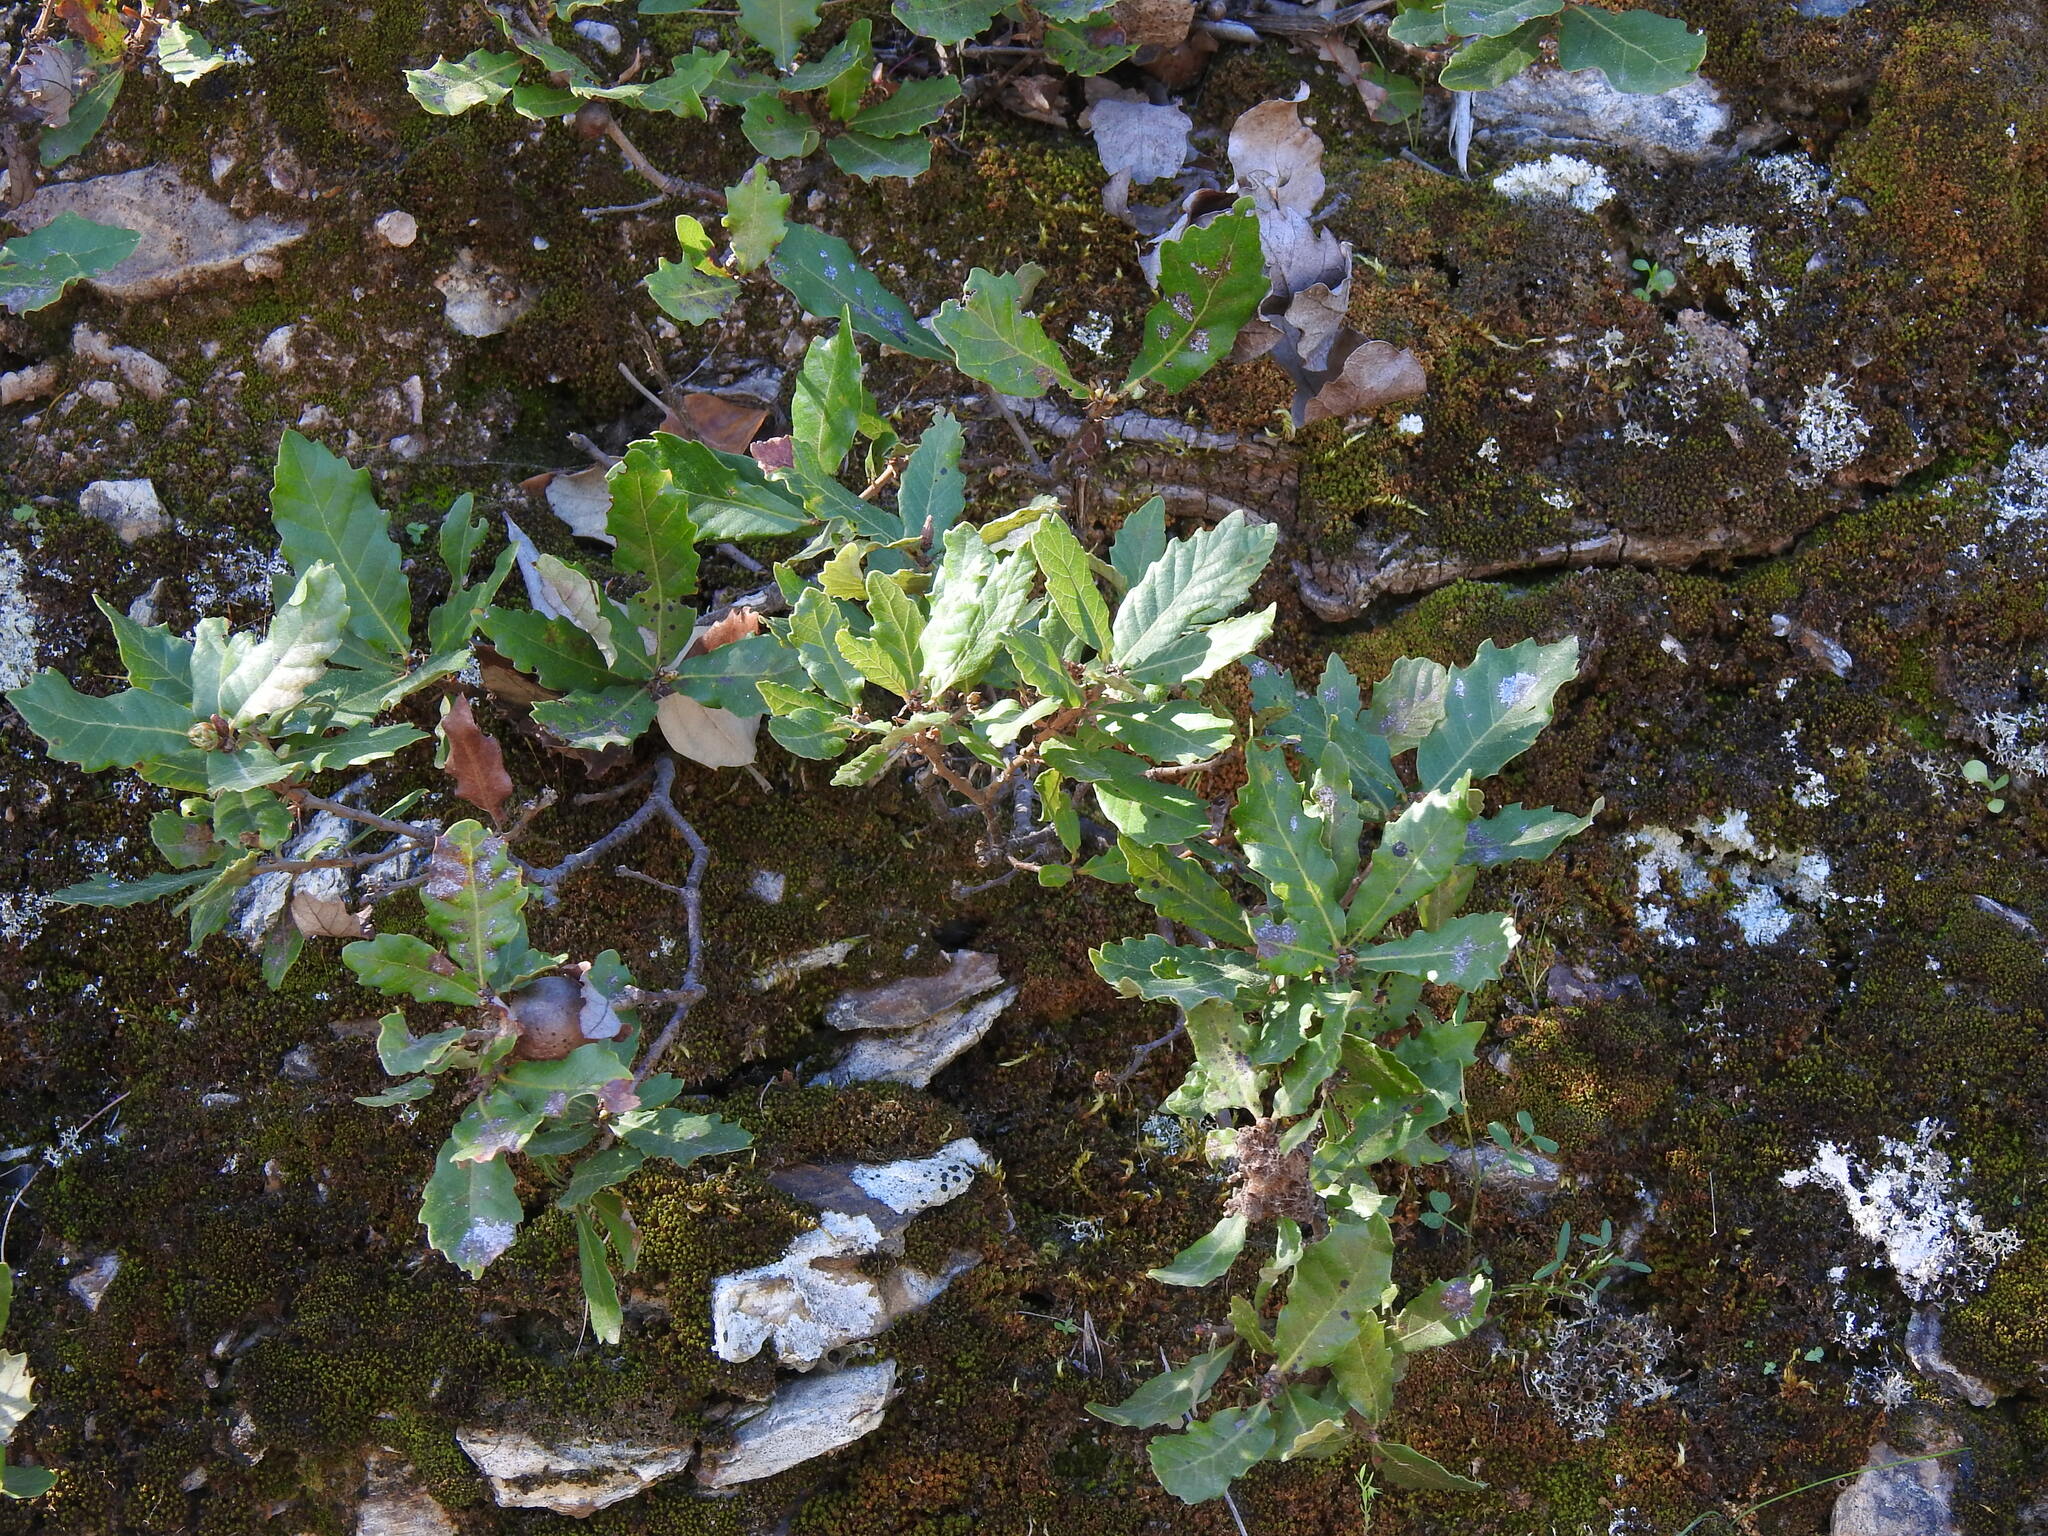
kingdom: Plantae
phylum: Tracheophyta
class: Magnoliopsida
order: Fagales
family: Fagaceae
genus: Quercus
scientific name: Quercus lusitanica
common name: Scrub gall oak
